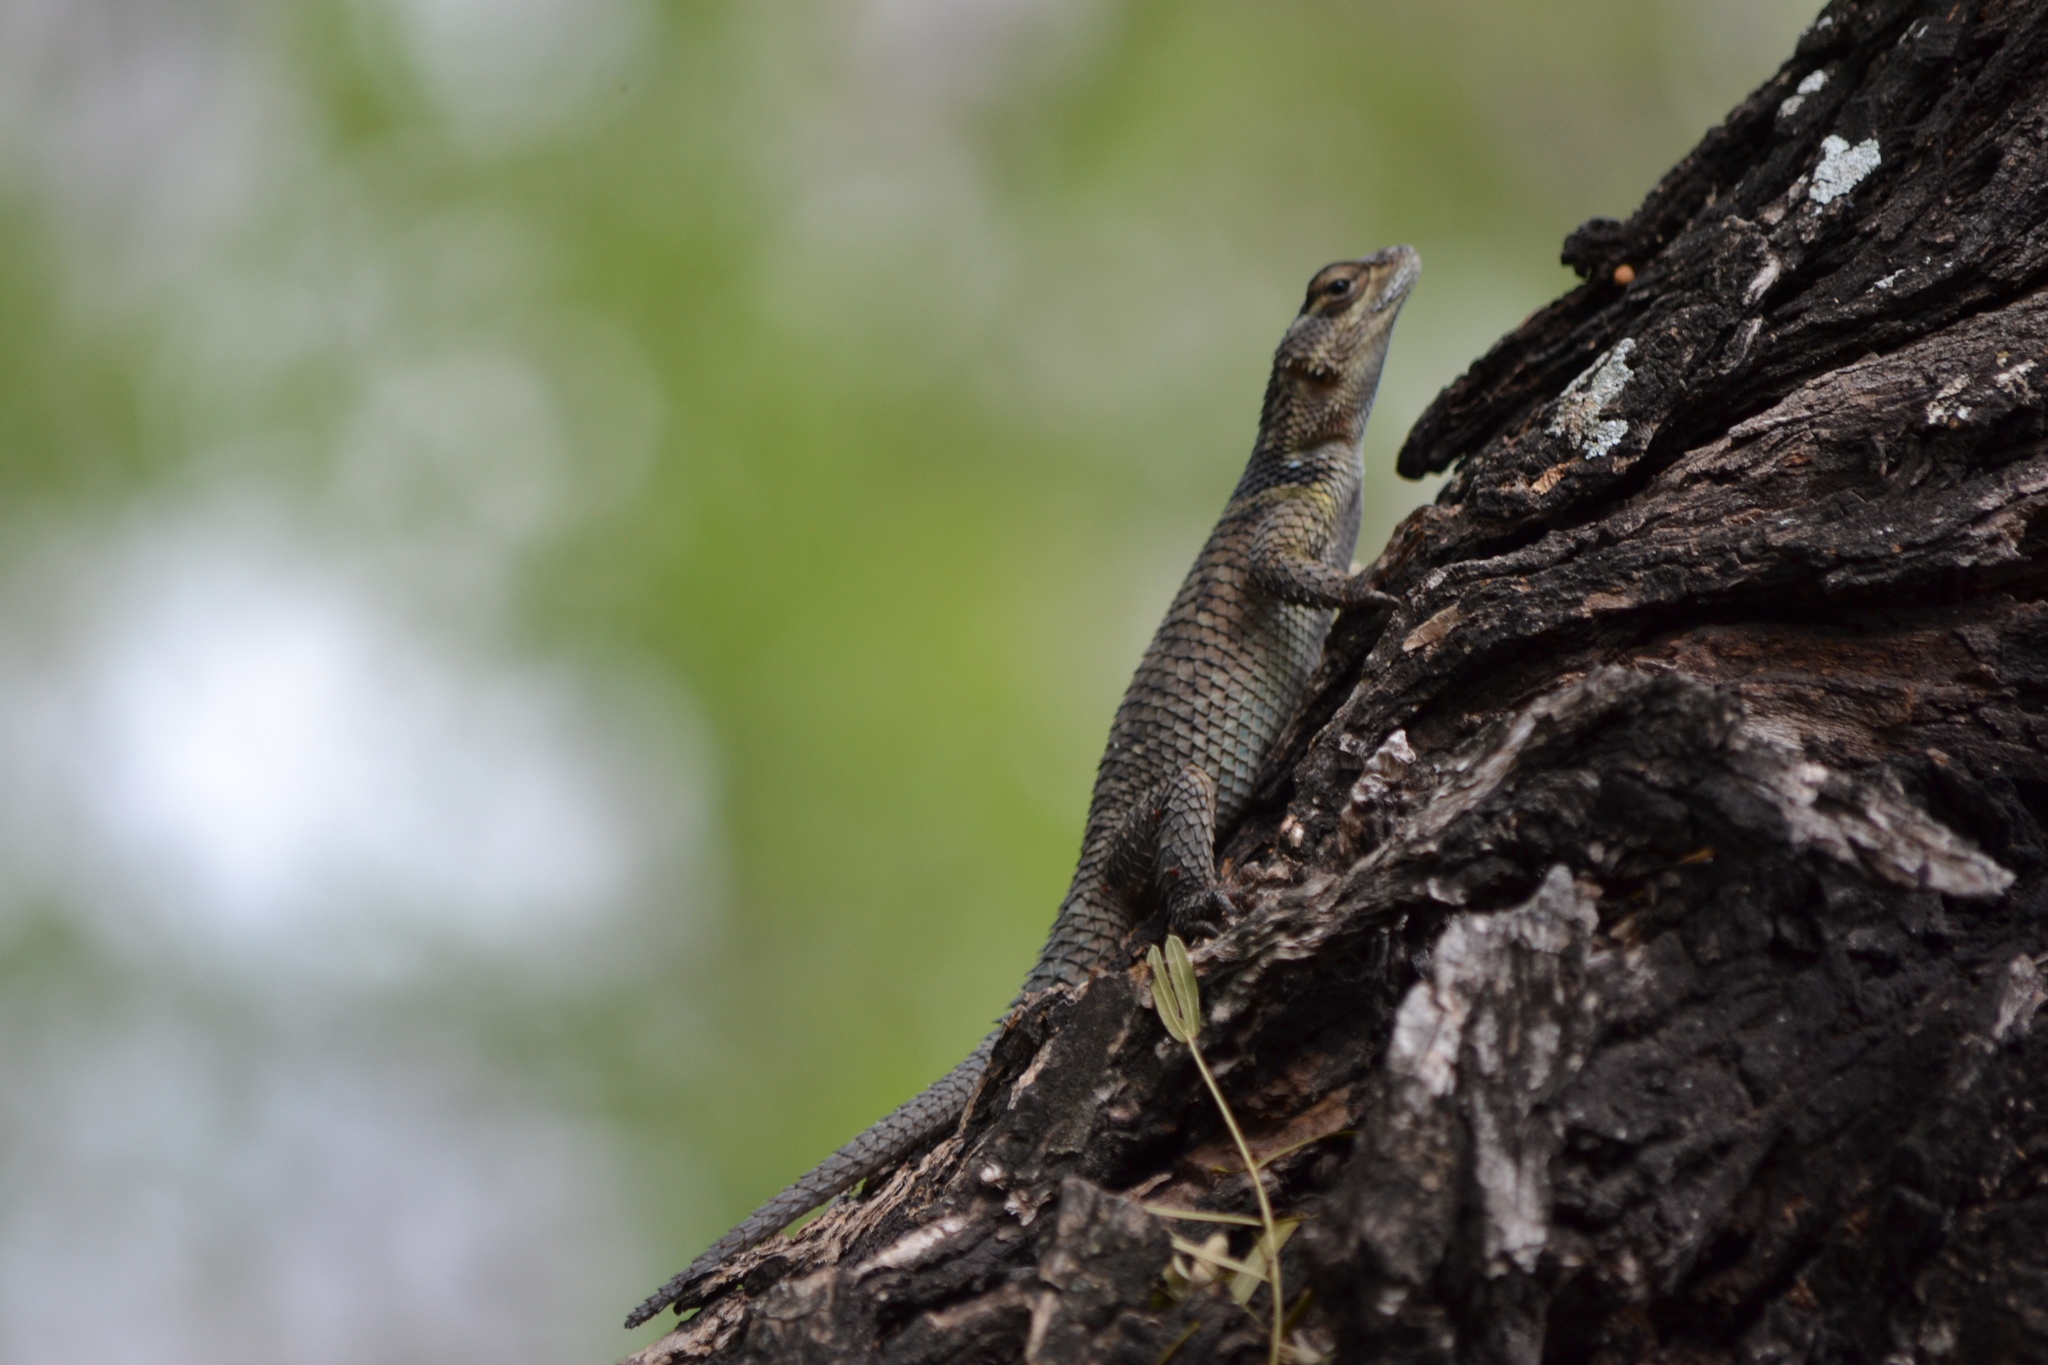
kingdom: Animalia
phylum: Chordata
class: Squamata
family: Phrynosomatidae
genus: Sceloporus
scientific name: Sceloporus cyanogenys
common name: Blue spiny lizard
